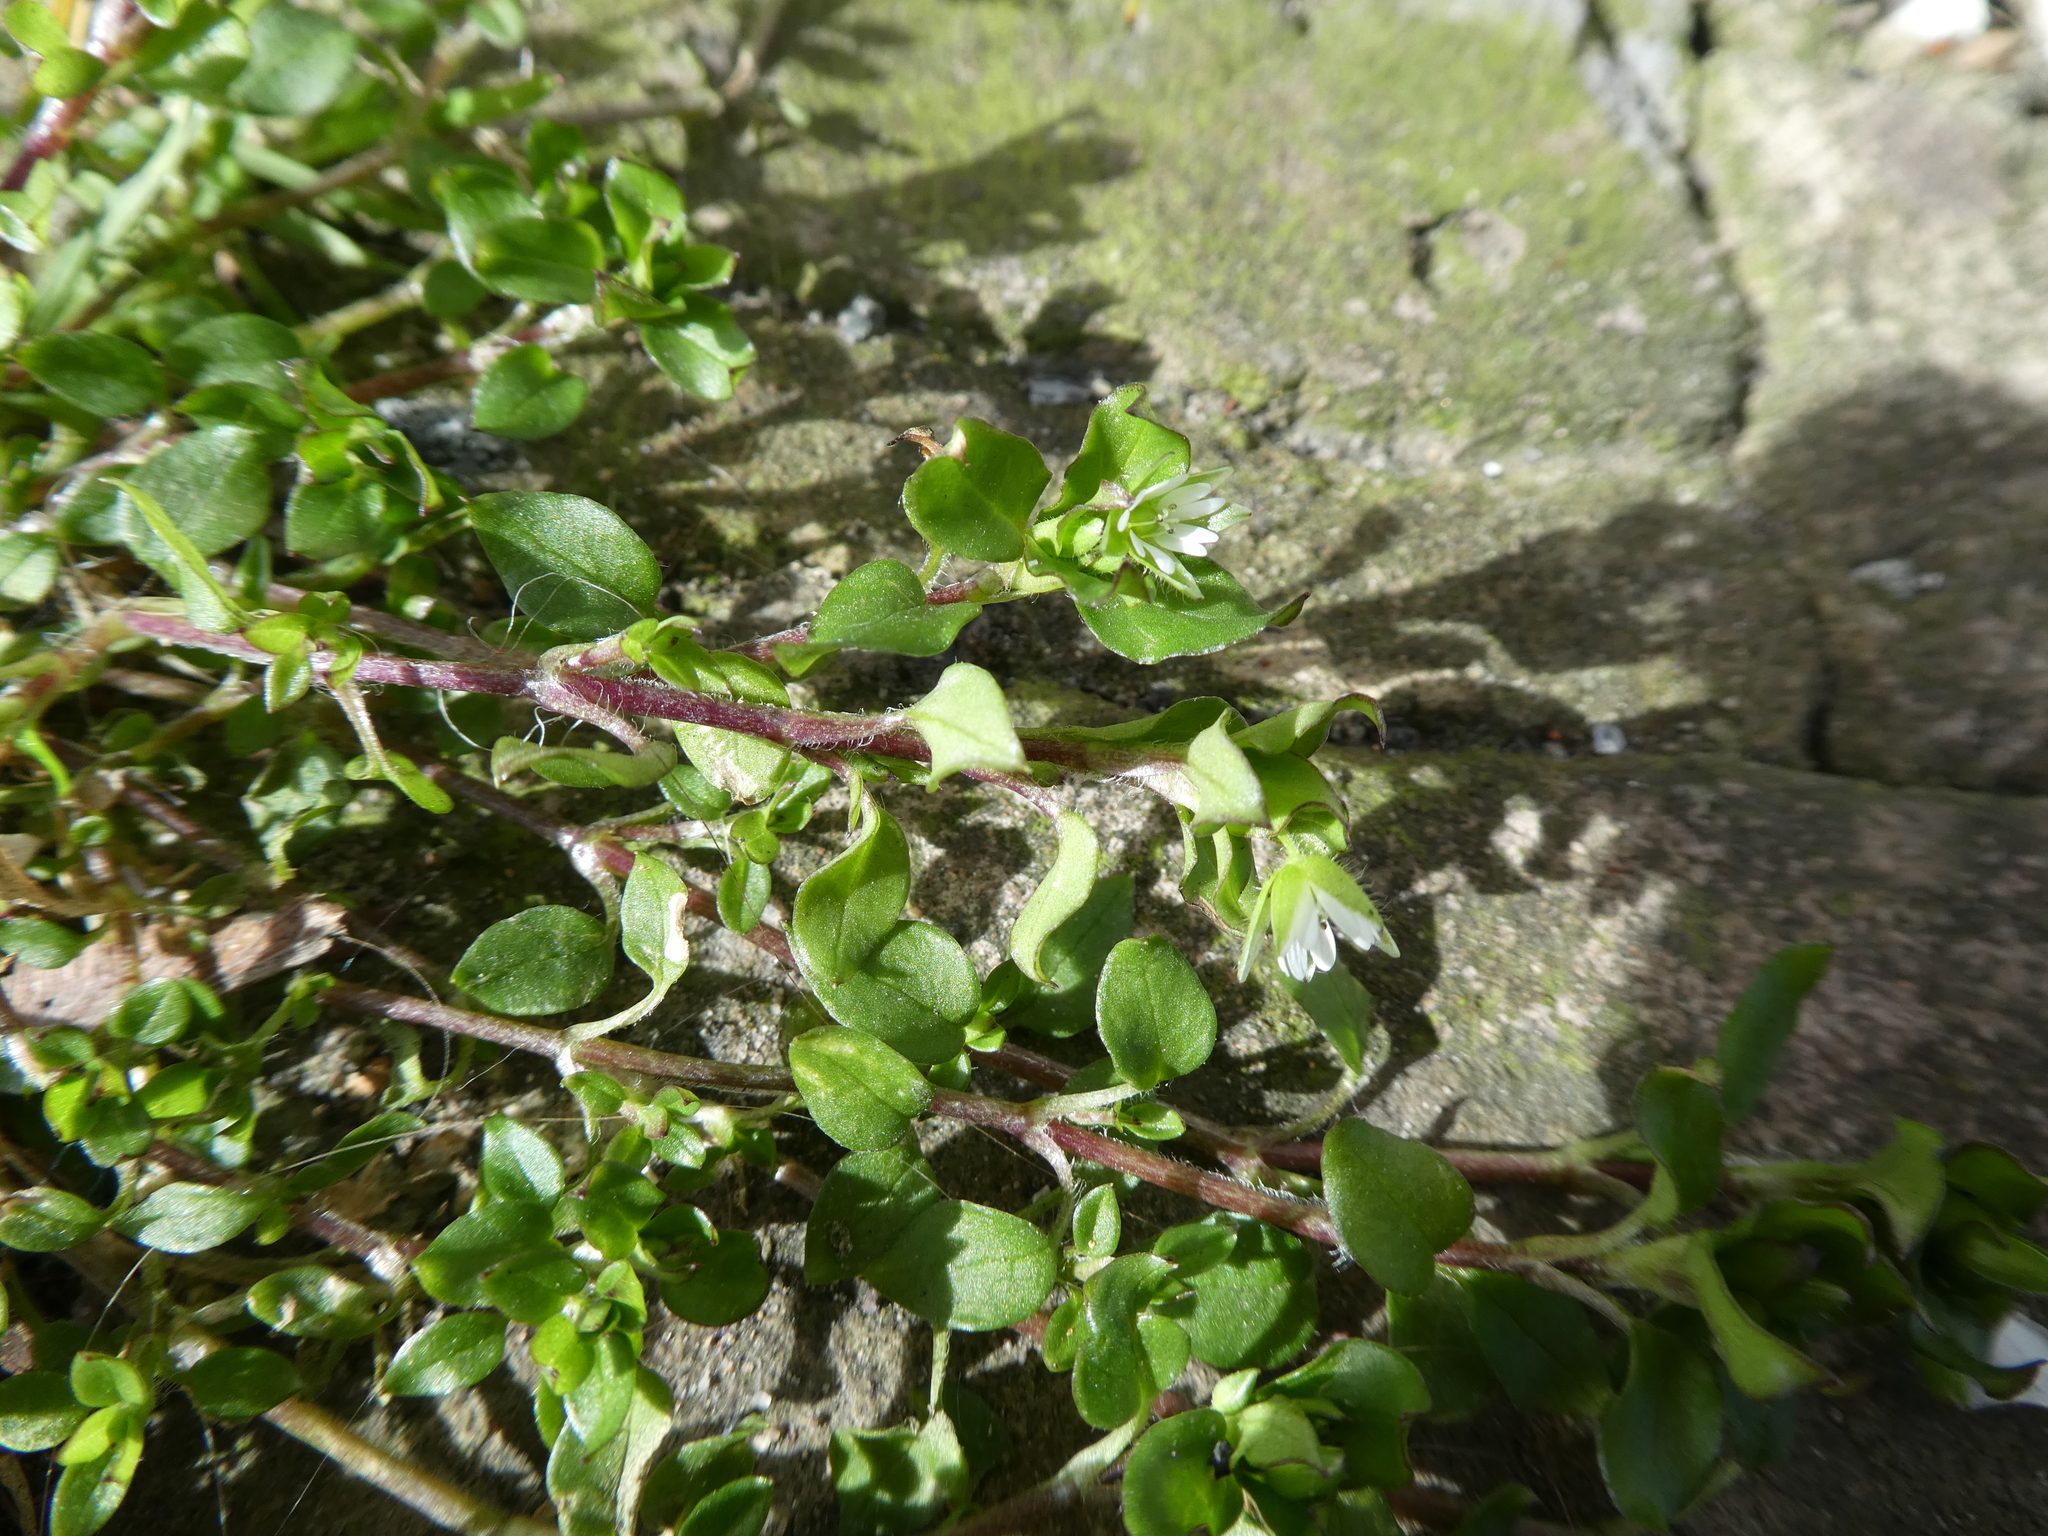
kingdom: Plantae
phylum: Tracheophyta
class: Magnoliopsida
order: Caryophyllales
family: Caryophyllaceae
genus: Stellaria
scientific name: Stellaria media
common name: Common chickweed
